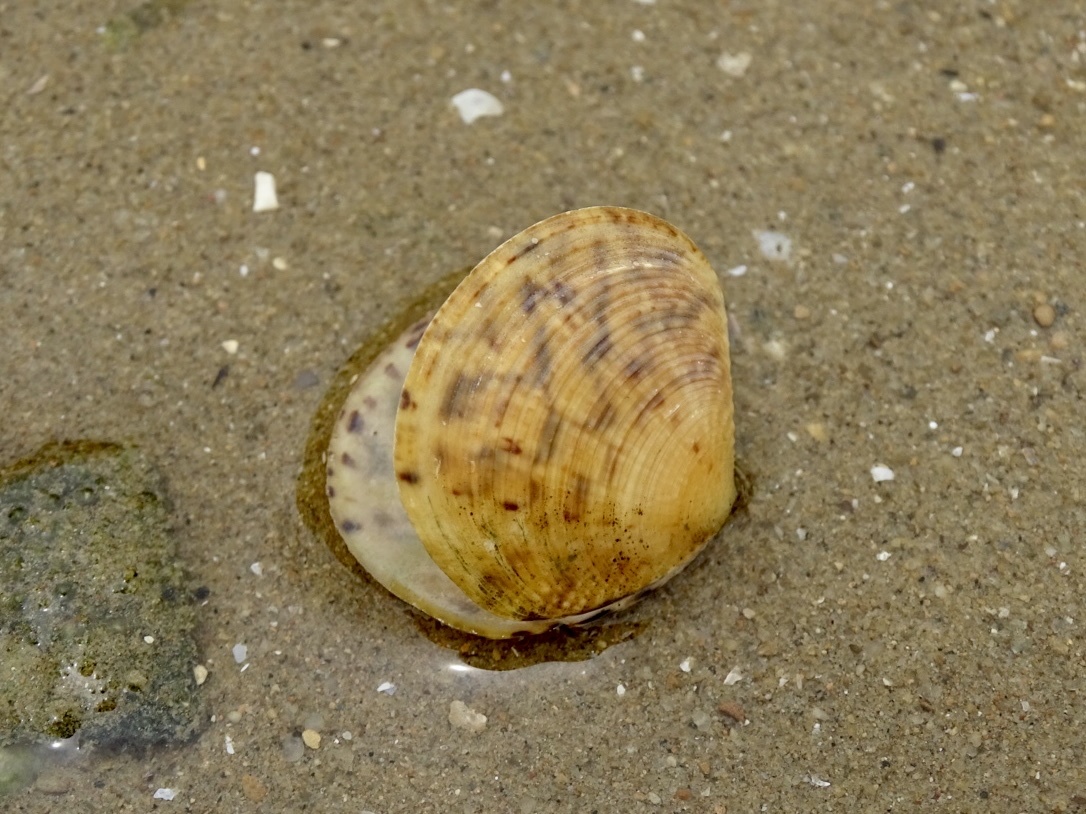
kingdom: Animalia
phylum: Mollusca
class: Bivalvia
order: Venerida
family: Veneridae
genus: Circe
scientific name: Circe scripta
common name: Script venus
